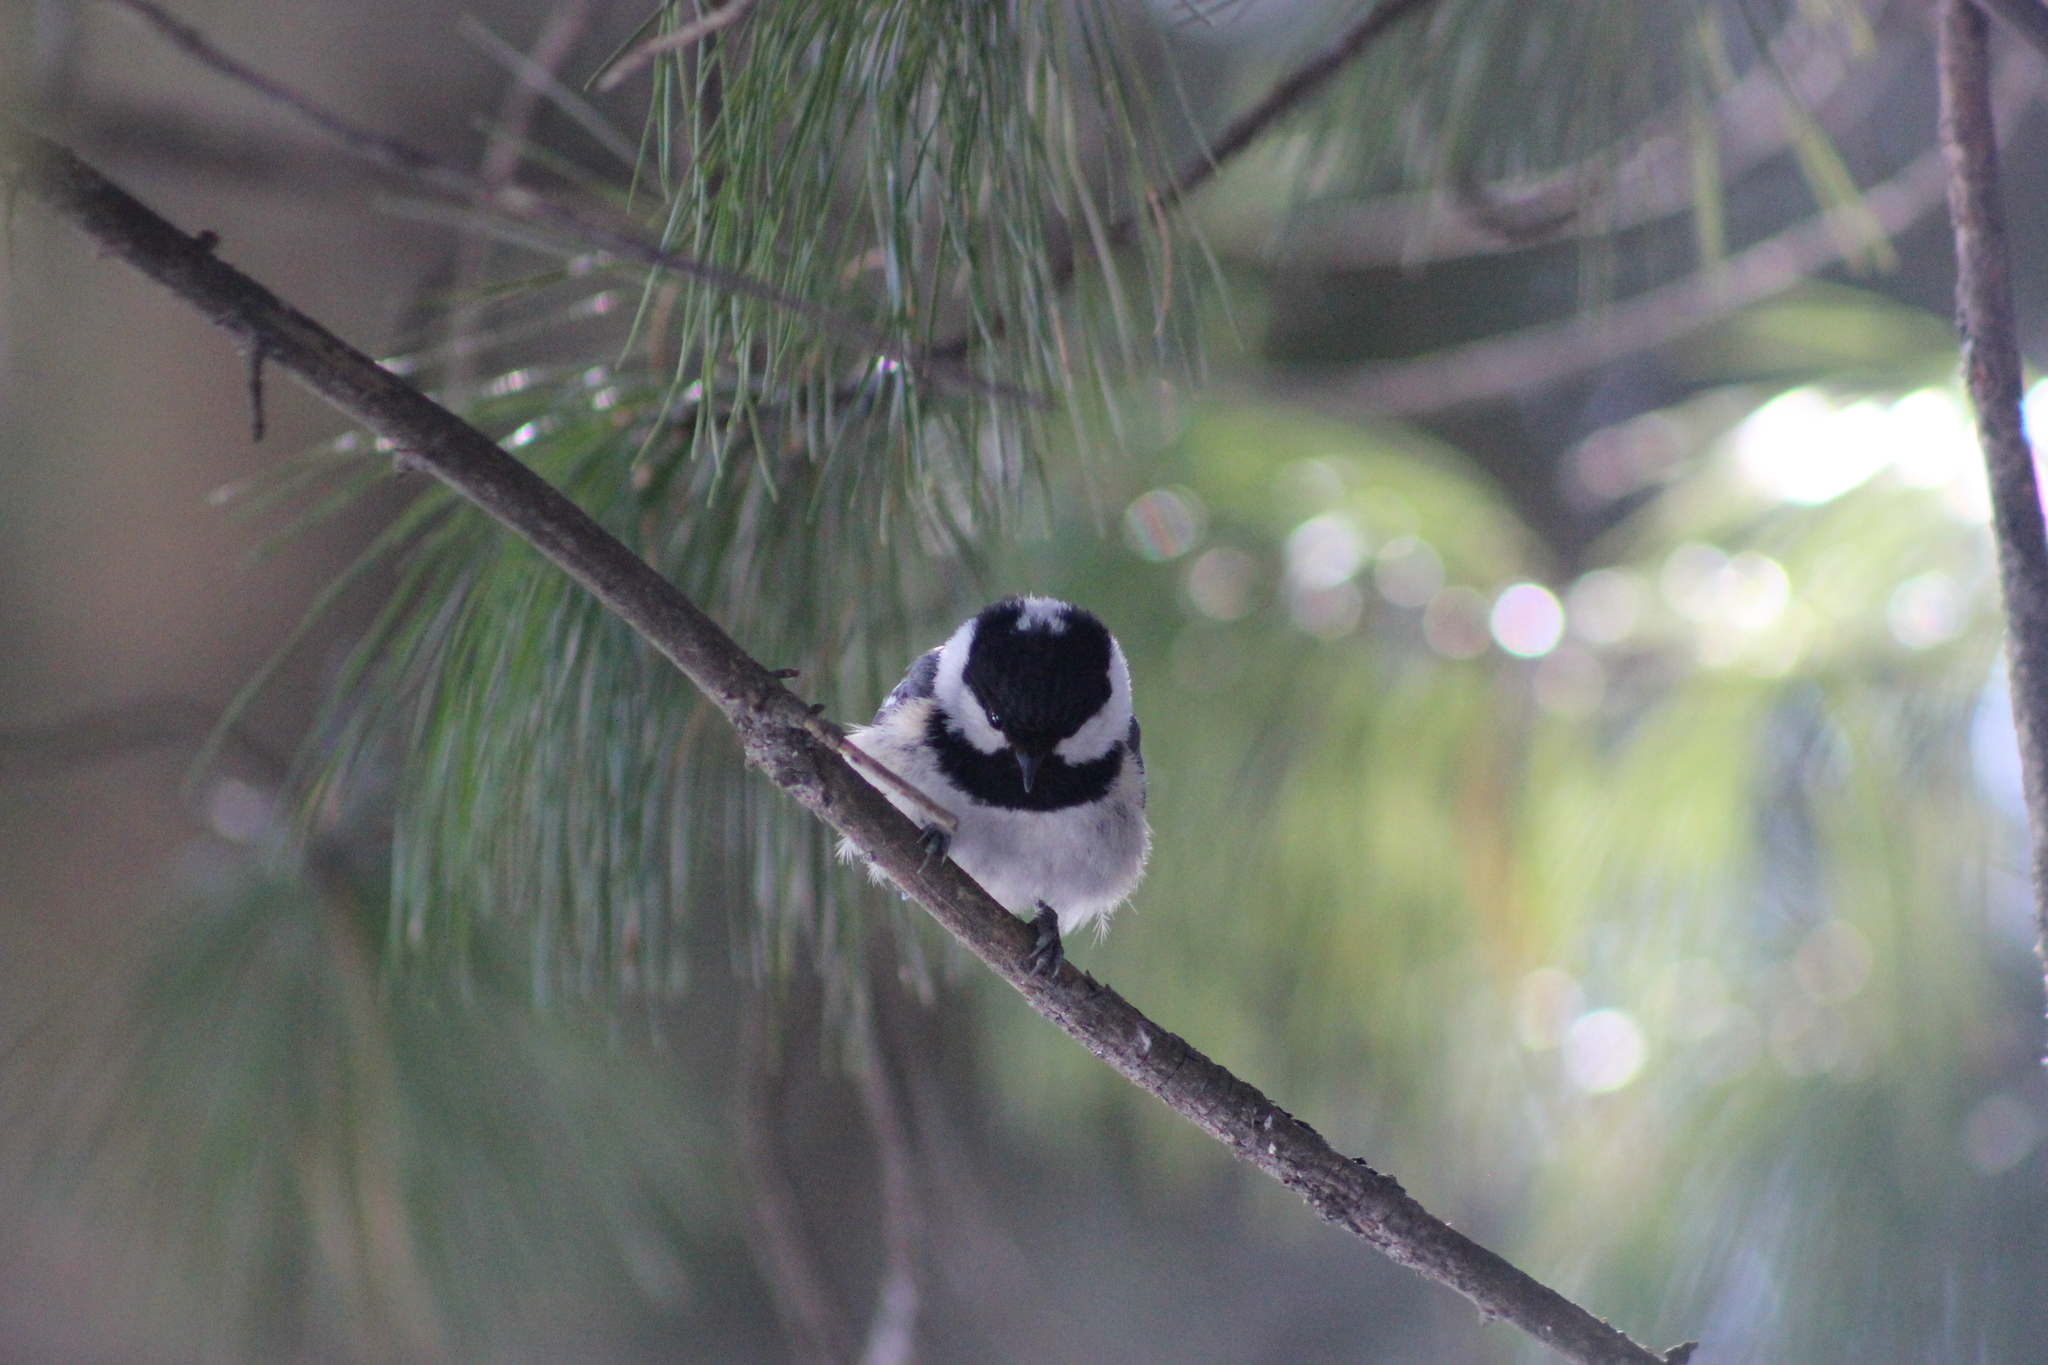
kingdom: Animalia
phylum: Chordata
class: Aves
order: Passeriformes
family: Paridae
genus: Periparus
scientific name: Periparus ater
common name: Coal tit
